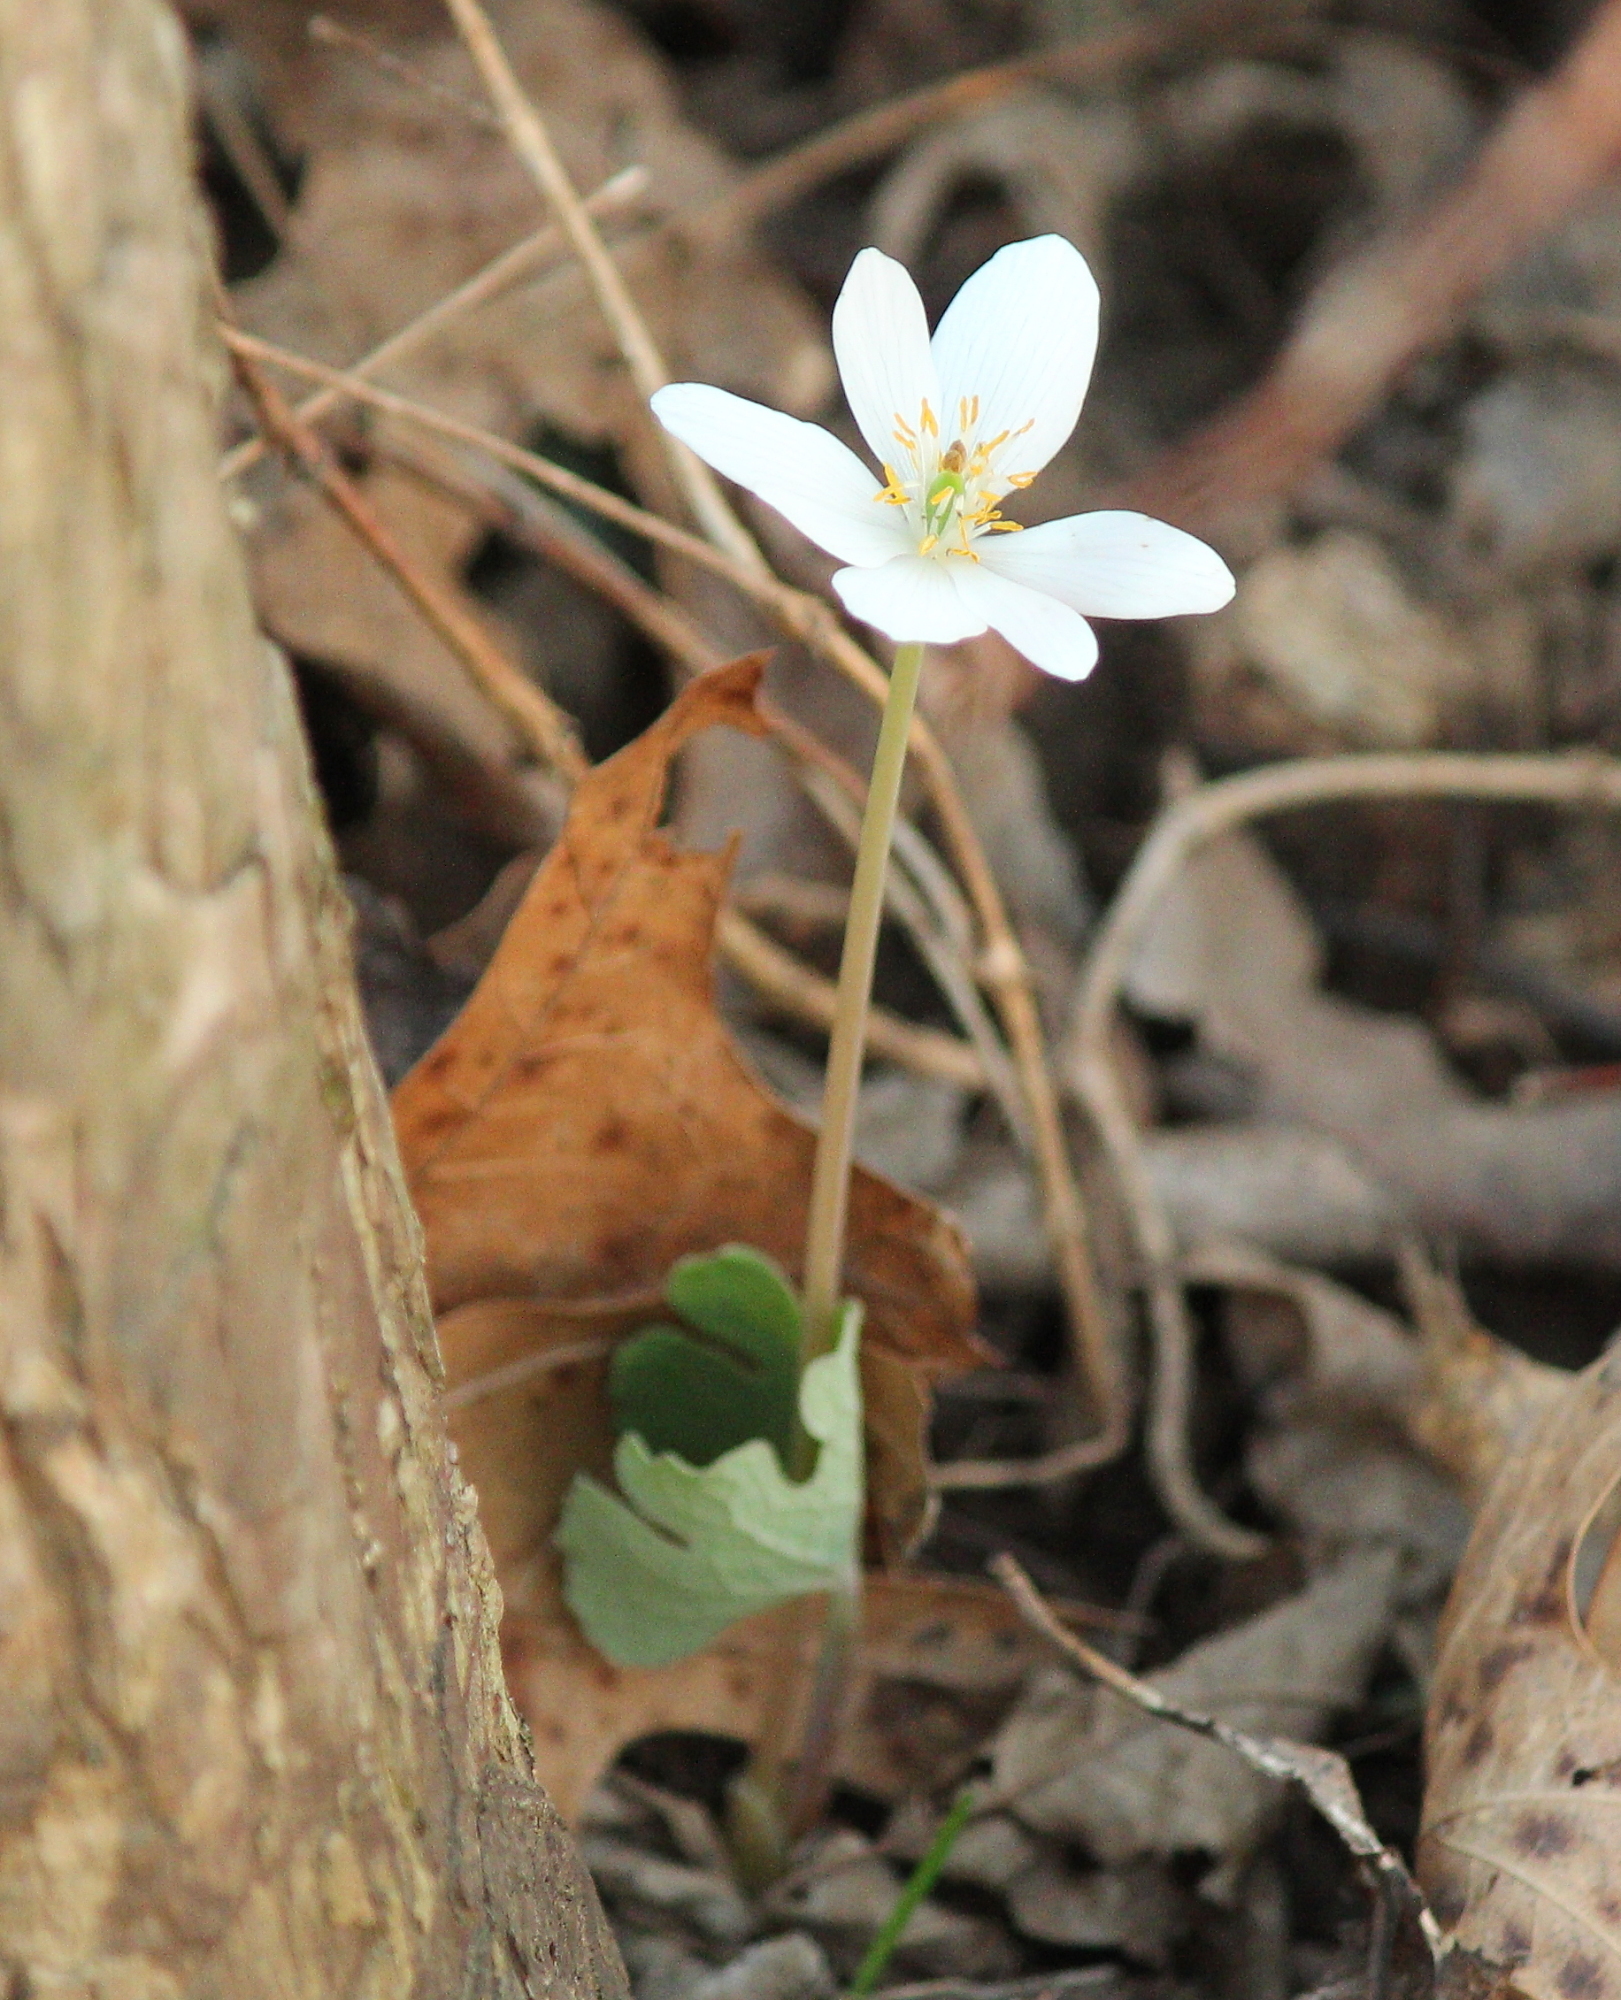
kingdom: Plantae
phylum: Tracheophyta
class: Magnoliopsida
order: Ranunculales
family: Papaveraceae
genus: Sanguinaria
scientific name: Sanguinaria canadensis
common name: Bloodroot
